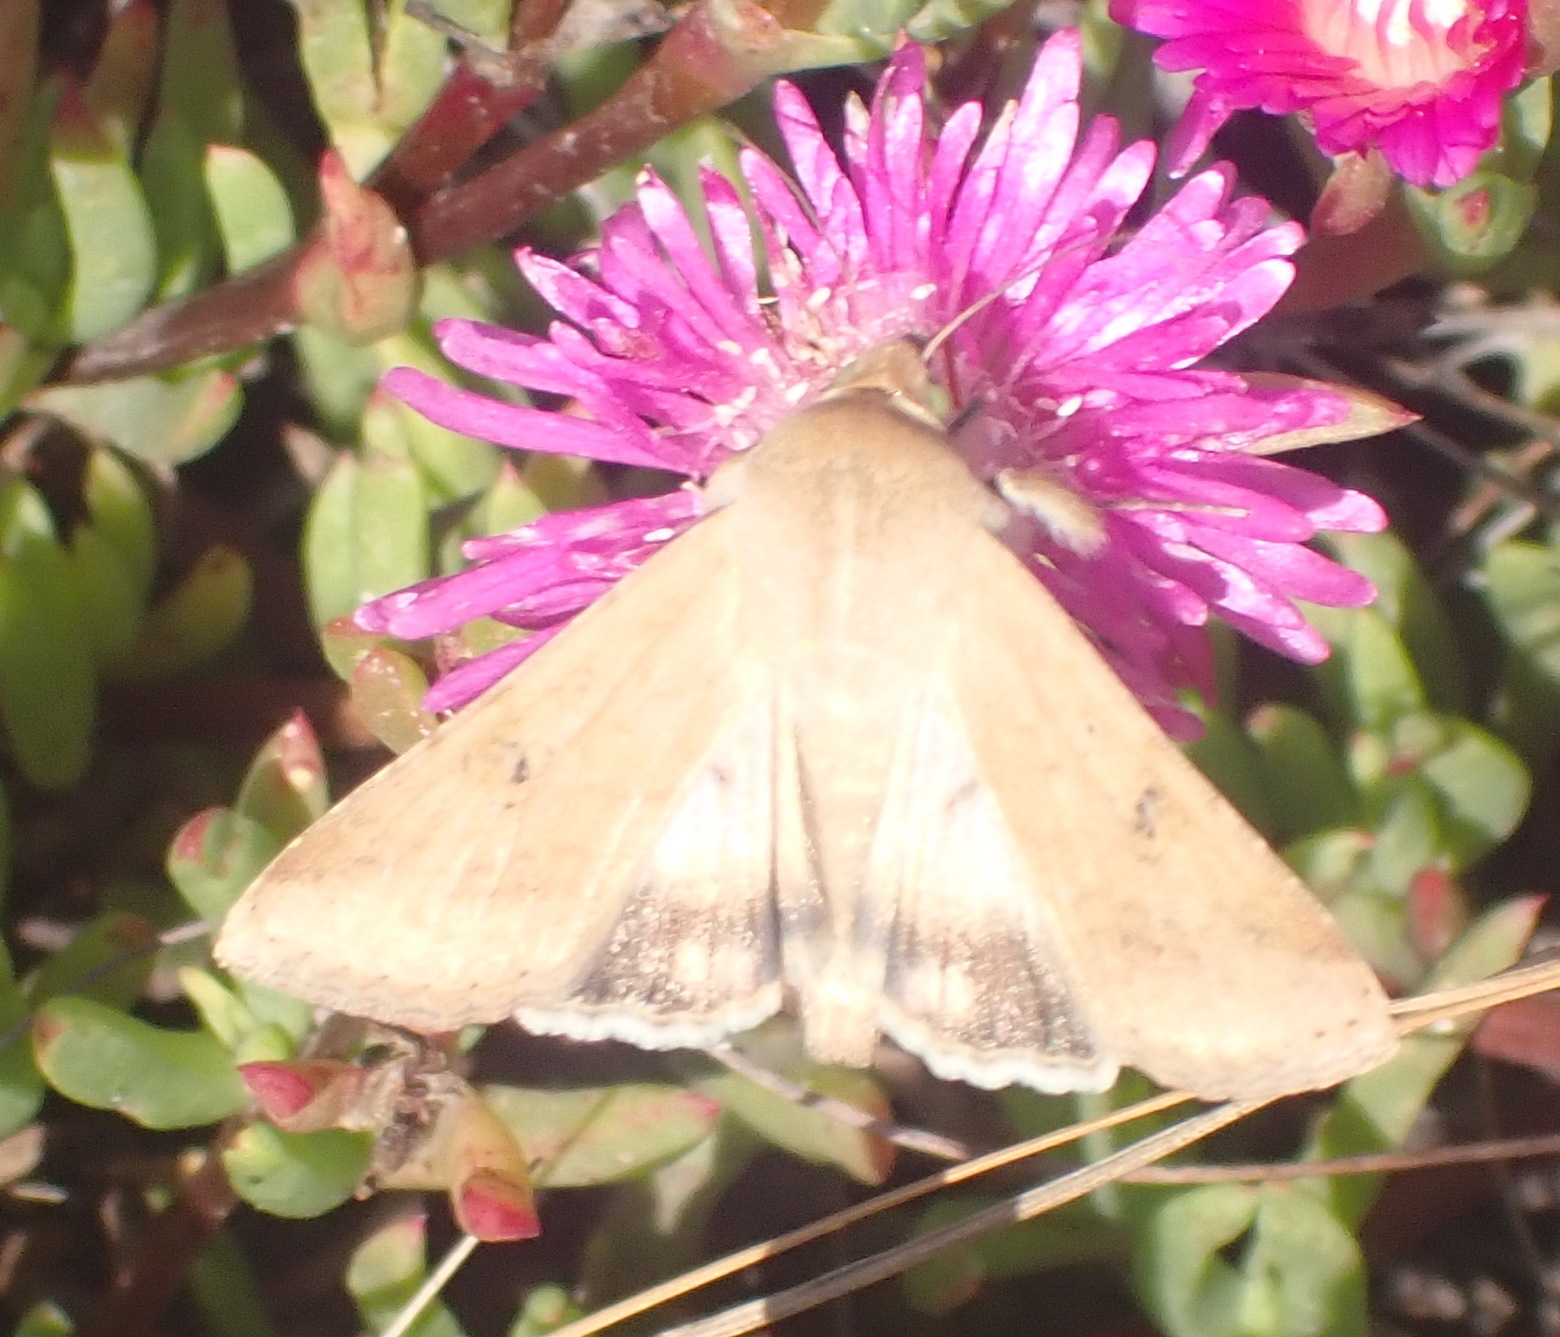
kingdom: Animalia
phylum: Arthropoda
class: Insecta
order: Lepidoptera
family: Noctuidae
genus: Helicoverpa
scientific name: Helicoverpa armigera
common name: Cotton bollworm
